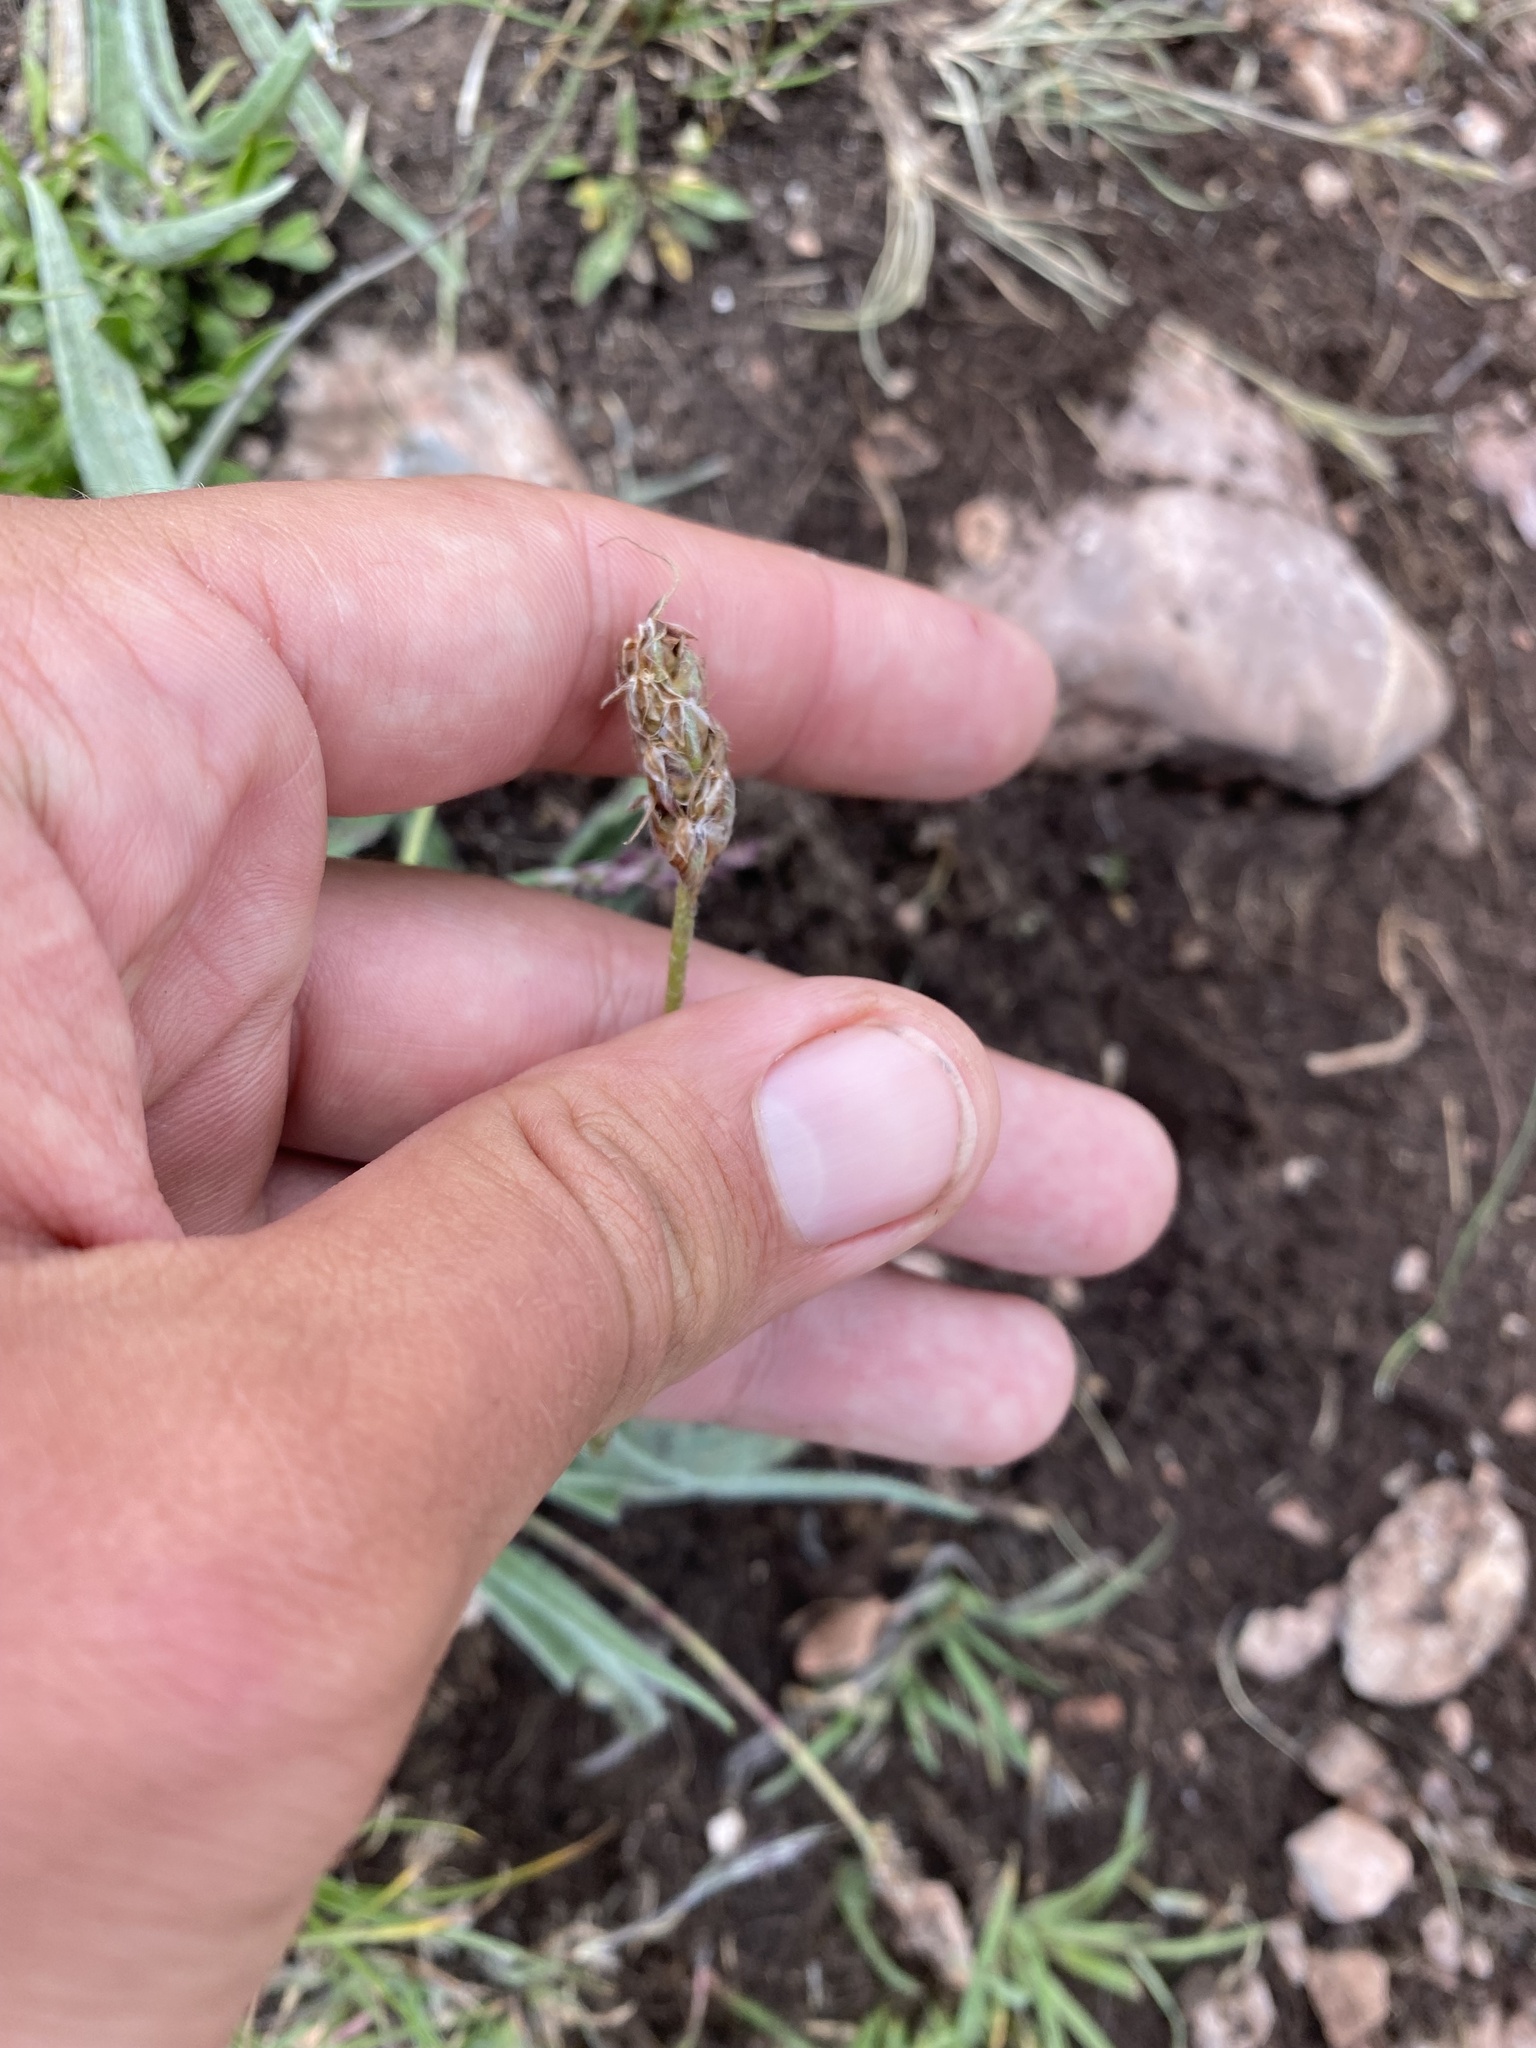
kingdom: Plantae
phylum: Tracheophyta
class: Magnoliopsida
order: Lamiales
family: Plantaginaceae
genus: Plantago
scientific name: Plantago atrata
